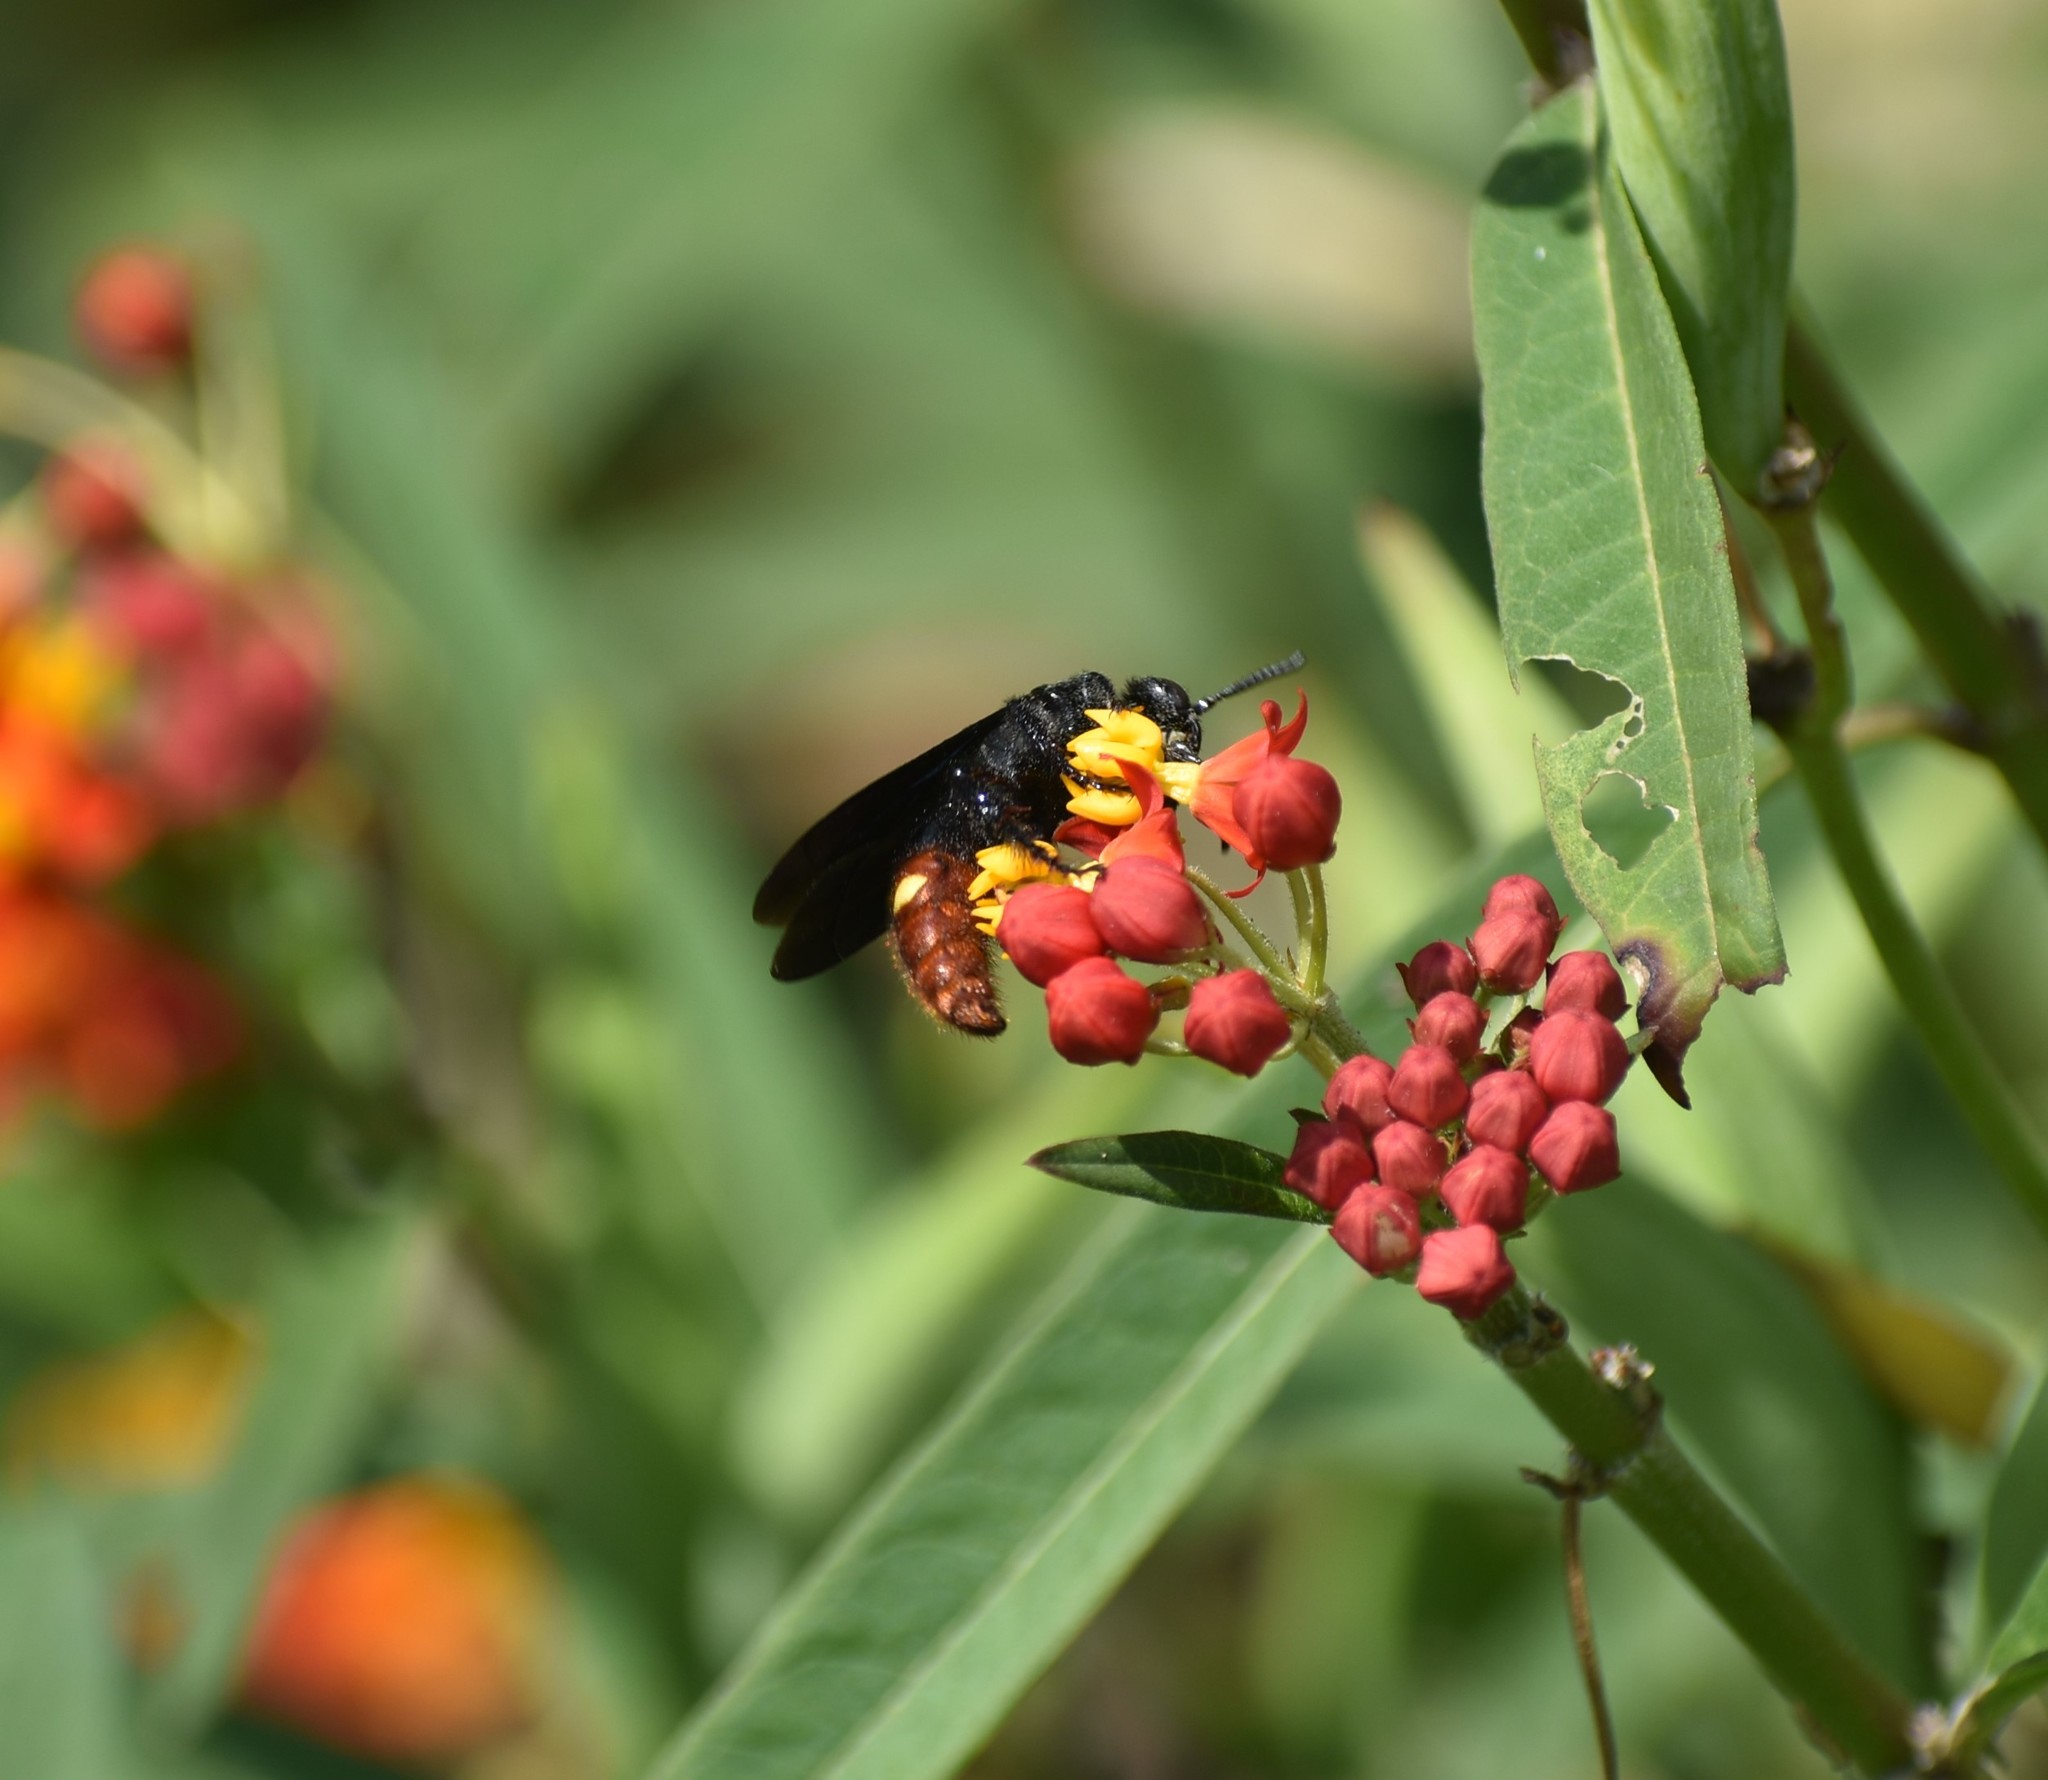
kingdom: Animalia
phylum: Arthropoda
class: Insecta
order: Hymenoptera
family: Scoliidae
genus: Scolia
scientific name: Scolia dubia
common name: Blue-winged scoliid wasp
